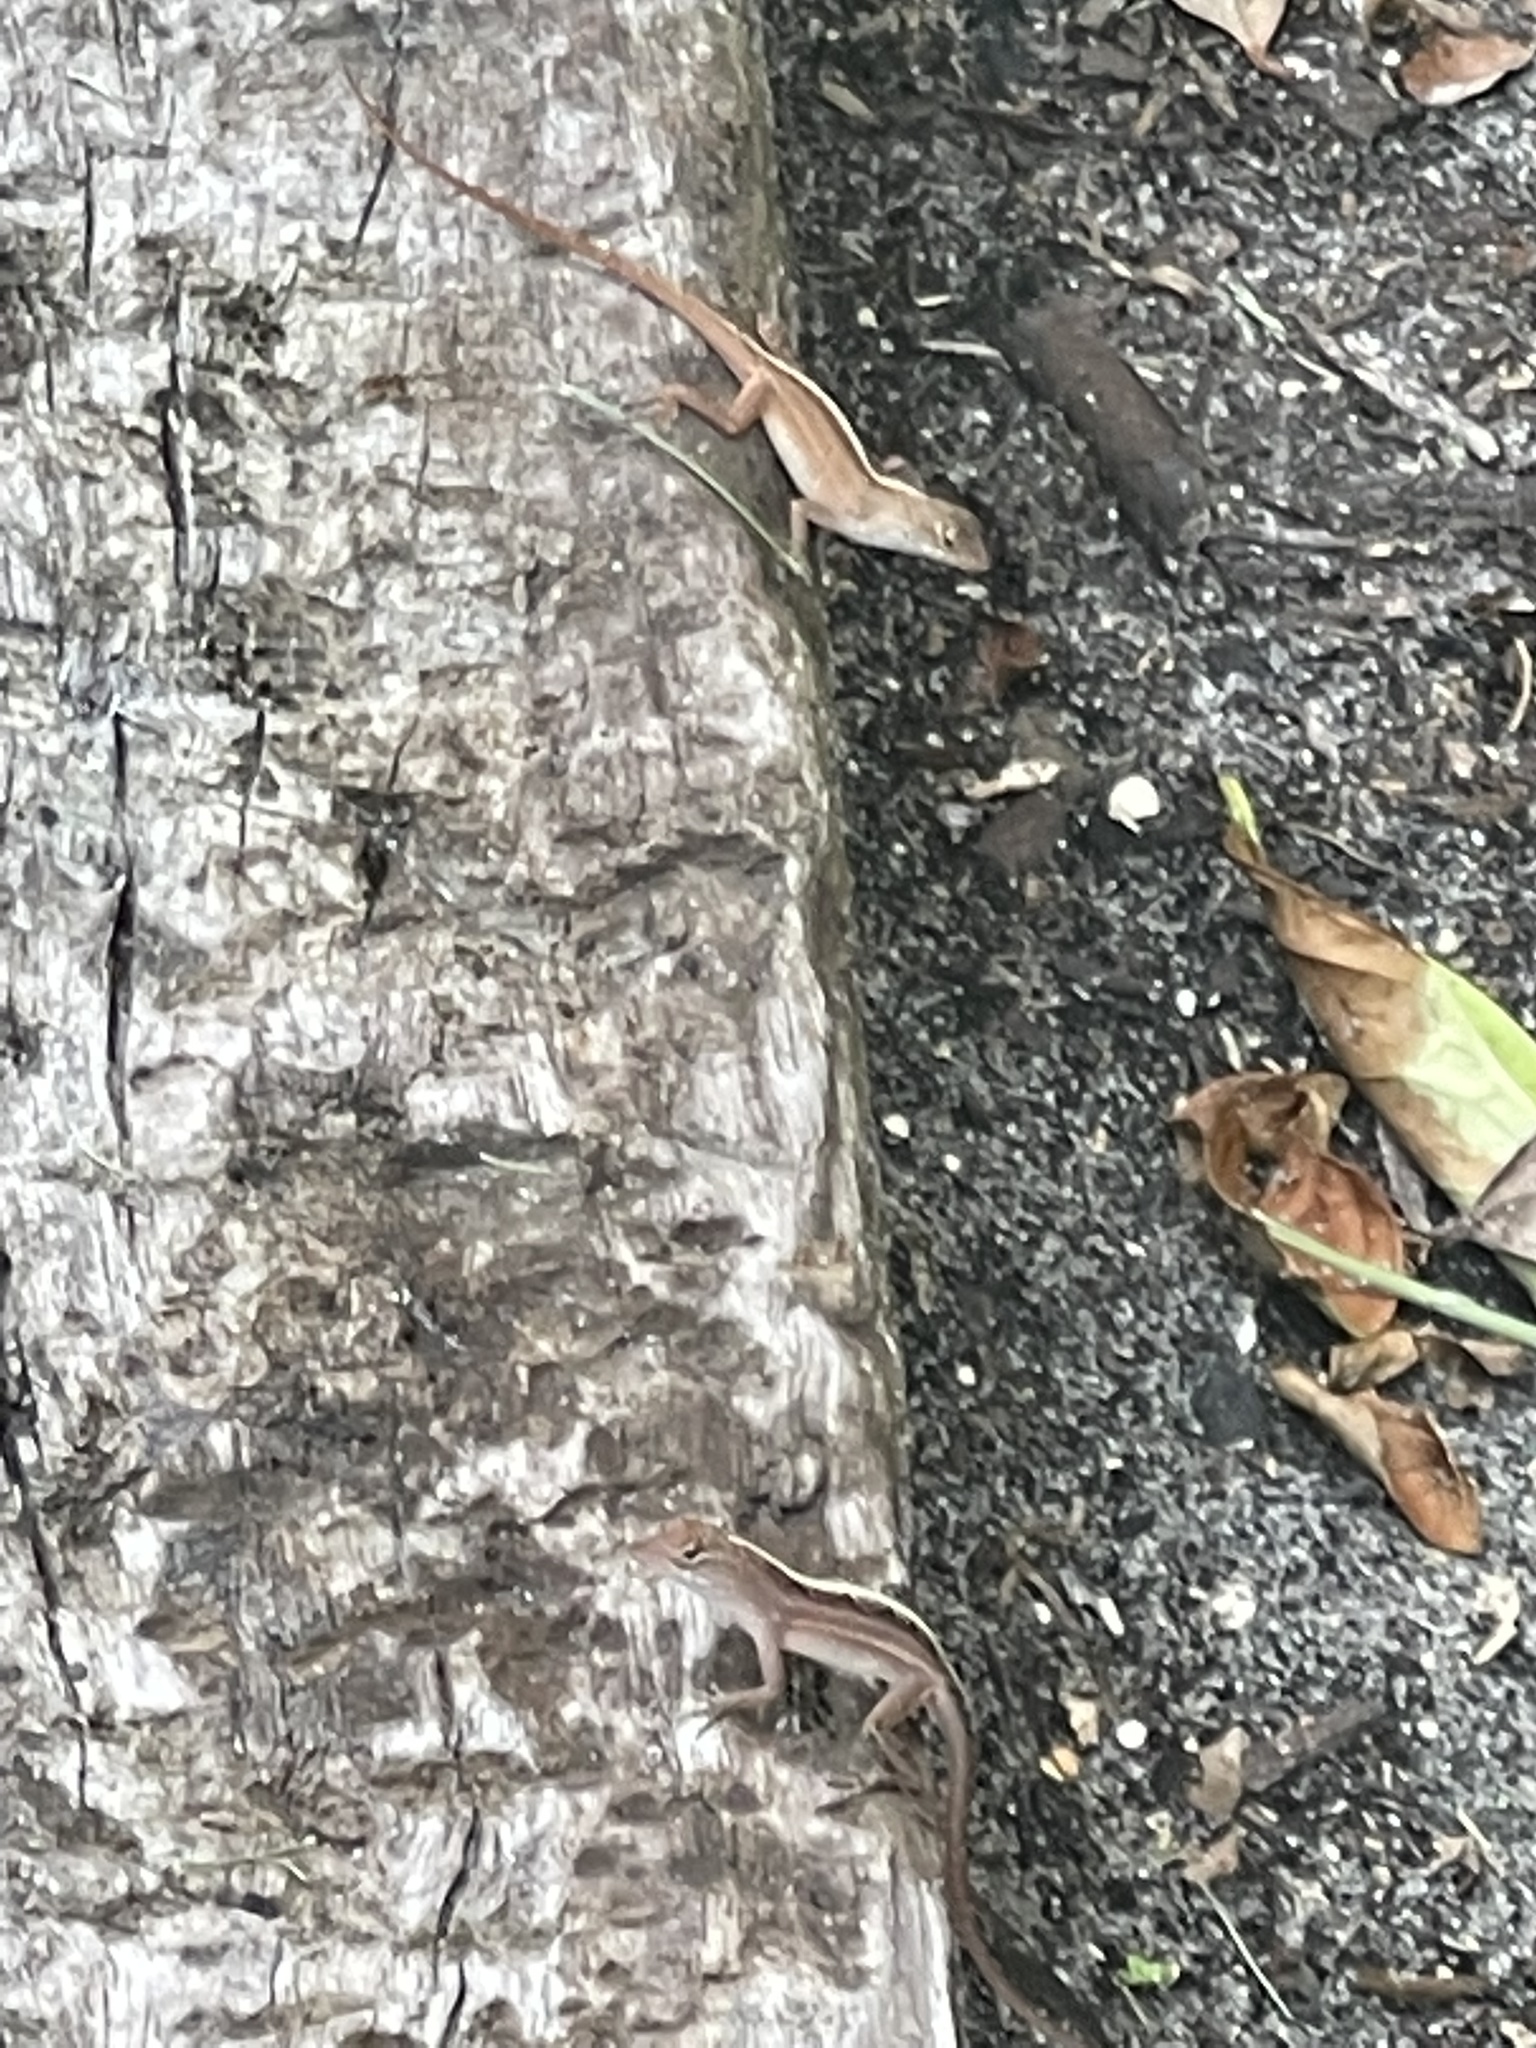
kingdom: Animalia
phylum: Chordata
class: Squamata
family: Dactyloidae
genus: Anolis
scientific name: Anolis sagrei
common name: Brown anole
